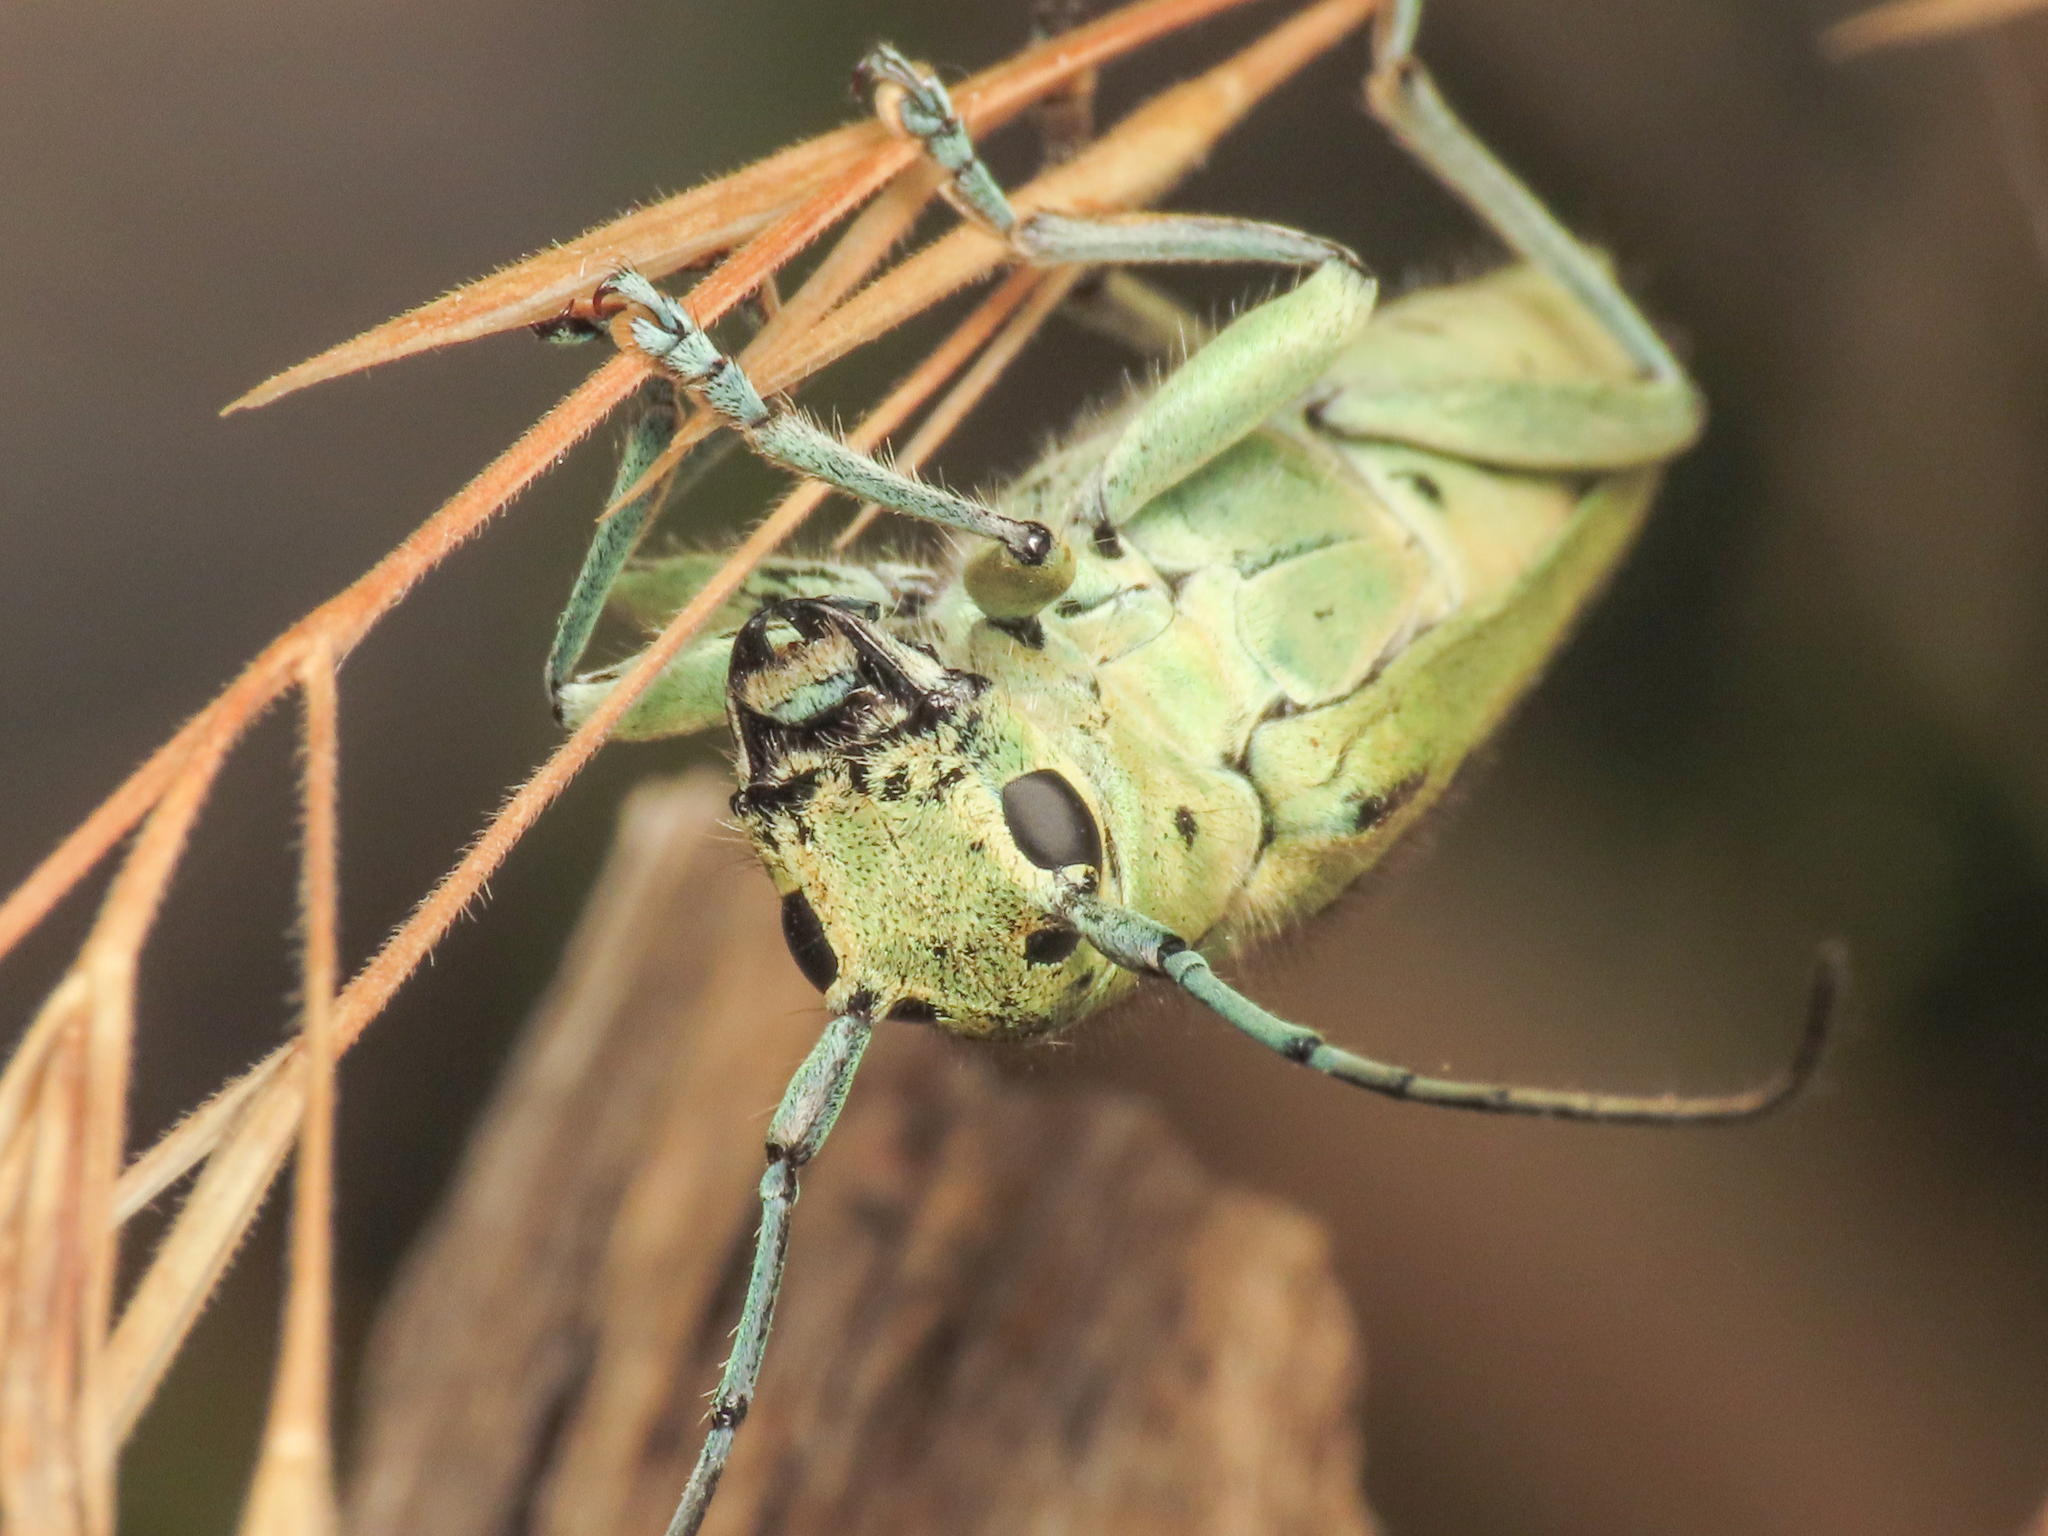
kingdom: Animalia
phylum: Arthropoda
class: Insecta
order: Coleoptera
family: Cerambycidae
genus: Saperda
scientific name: Saperda punctata
